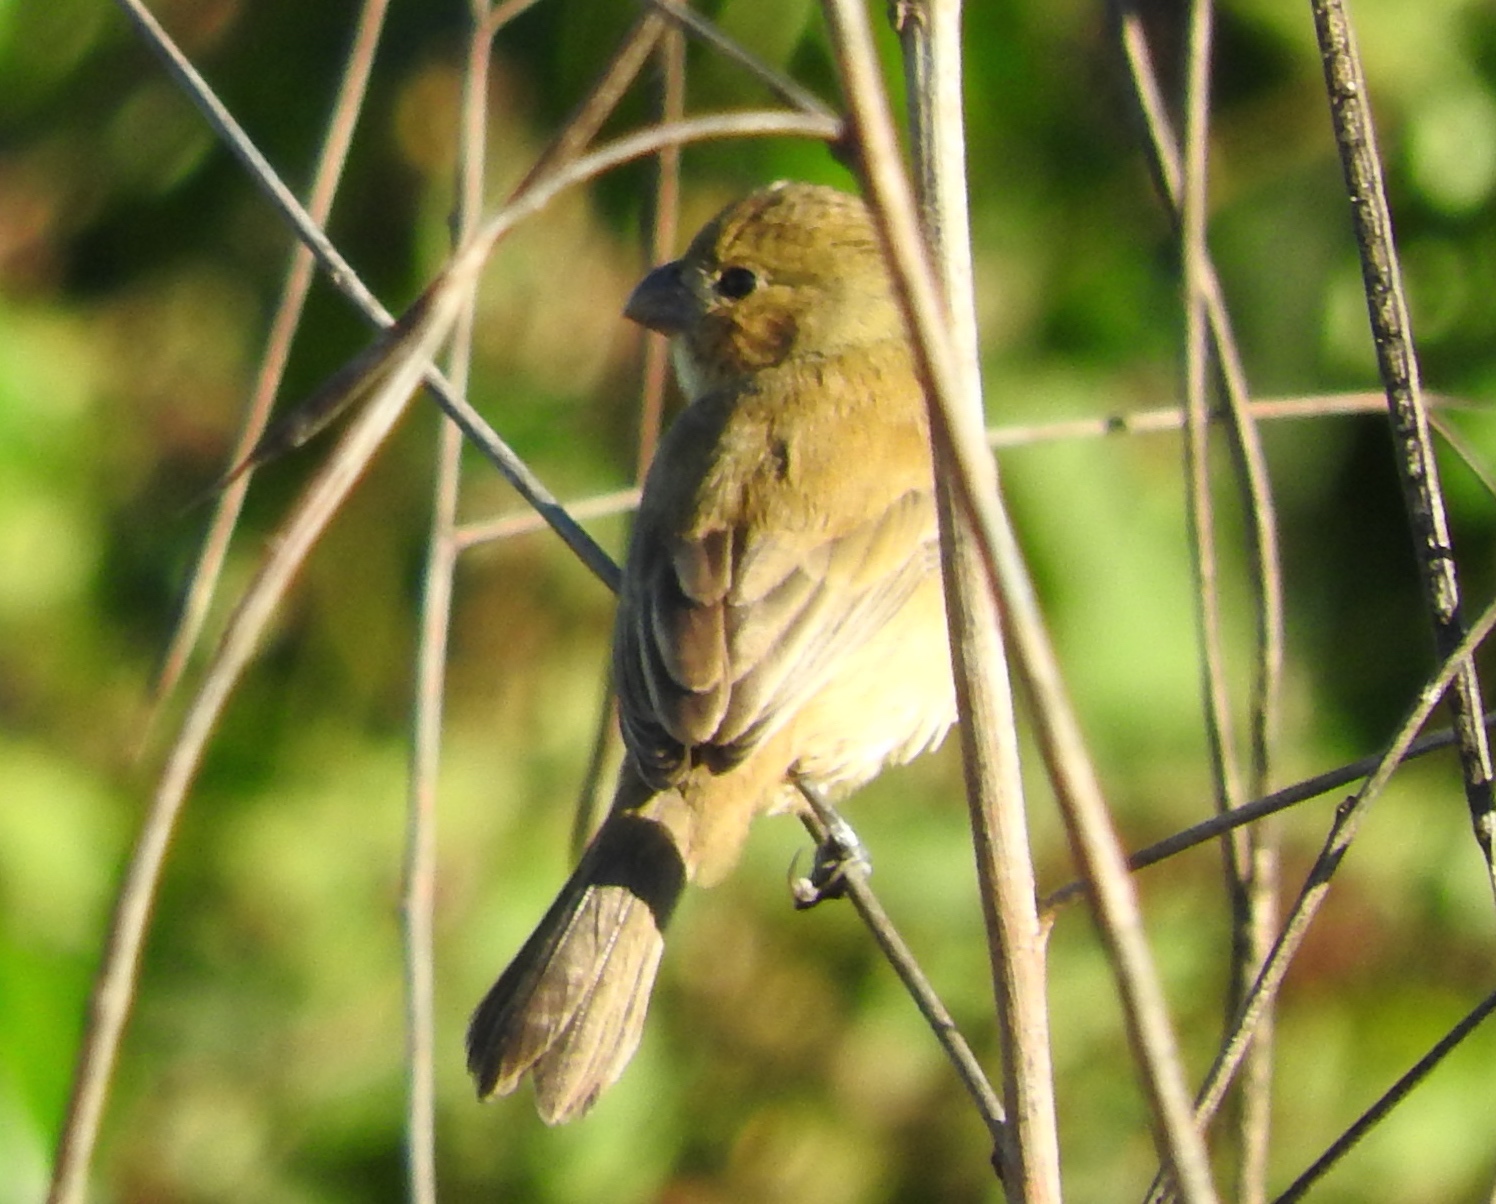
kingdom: Animalia
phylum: Chordata
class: Aves
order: Passeriformes
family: Thraupidae
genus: Sporophila
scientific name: Sporophila torqueola
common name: White-collared seedeater
